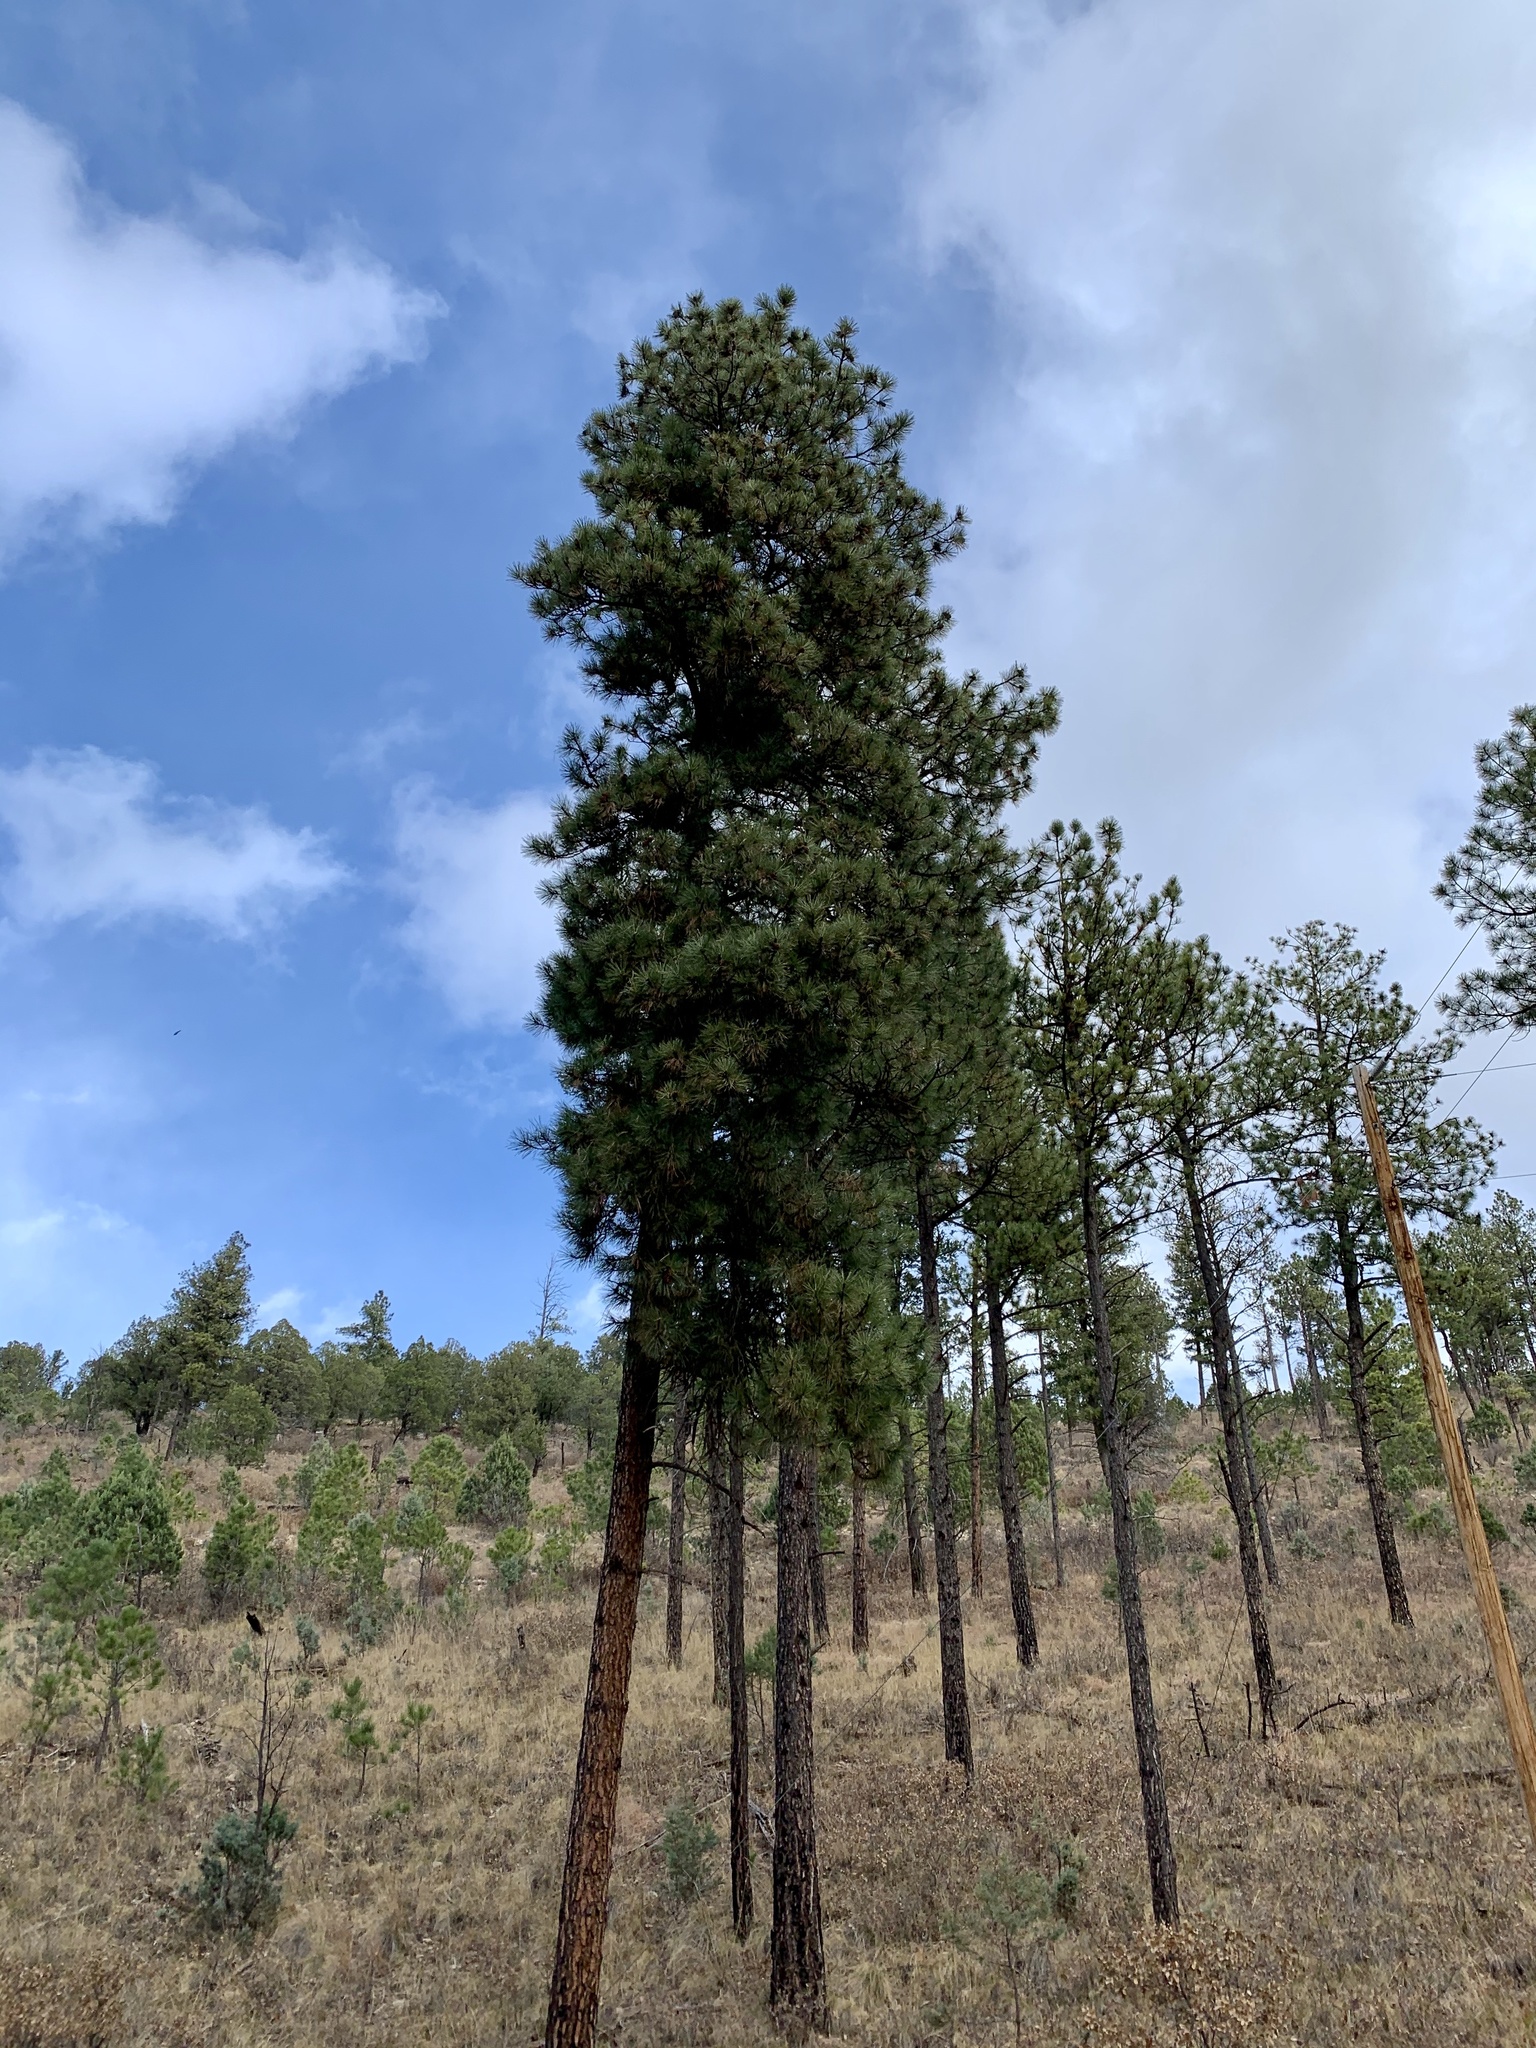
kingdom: Plantae
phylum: Tracheophyta
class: Pinopsida
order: Pinales
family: Pinaceae
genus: Pinus
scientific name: Pinus ponderosa
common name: Western yellow-pine
